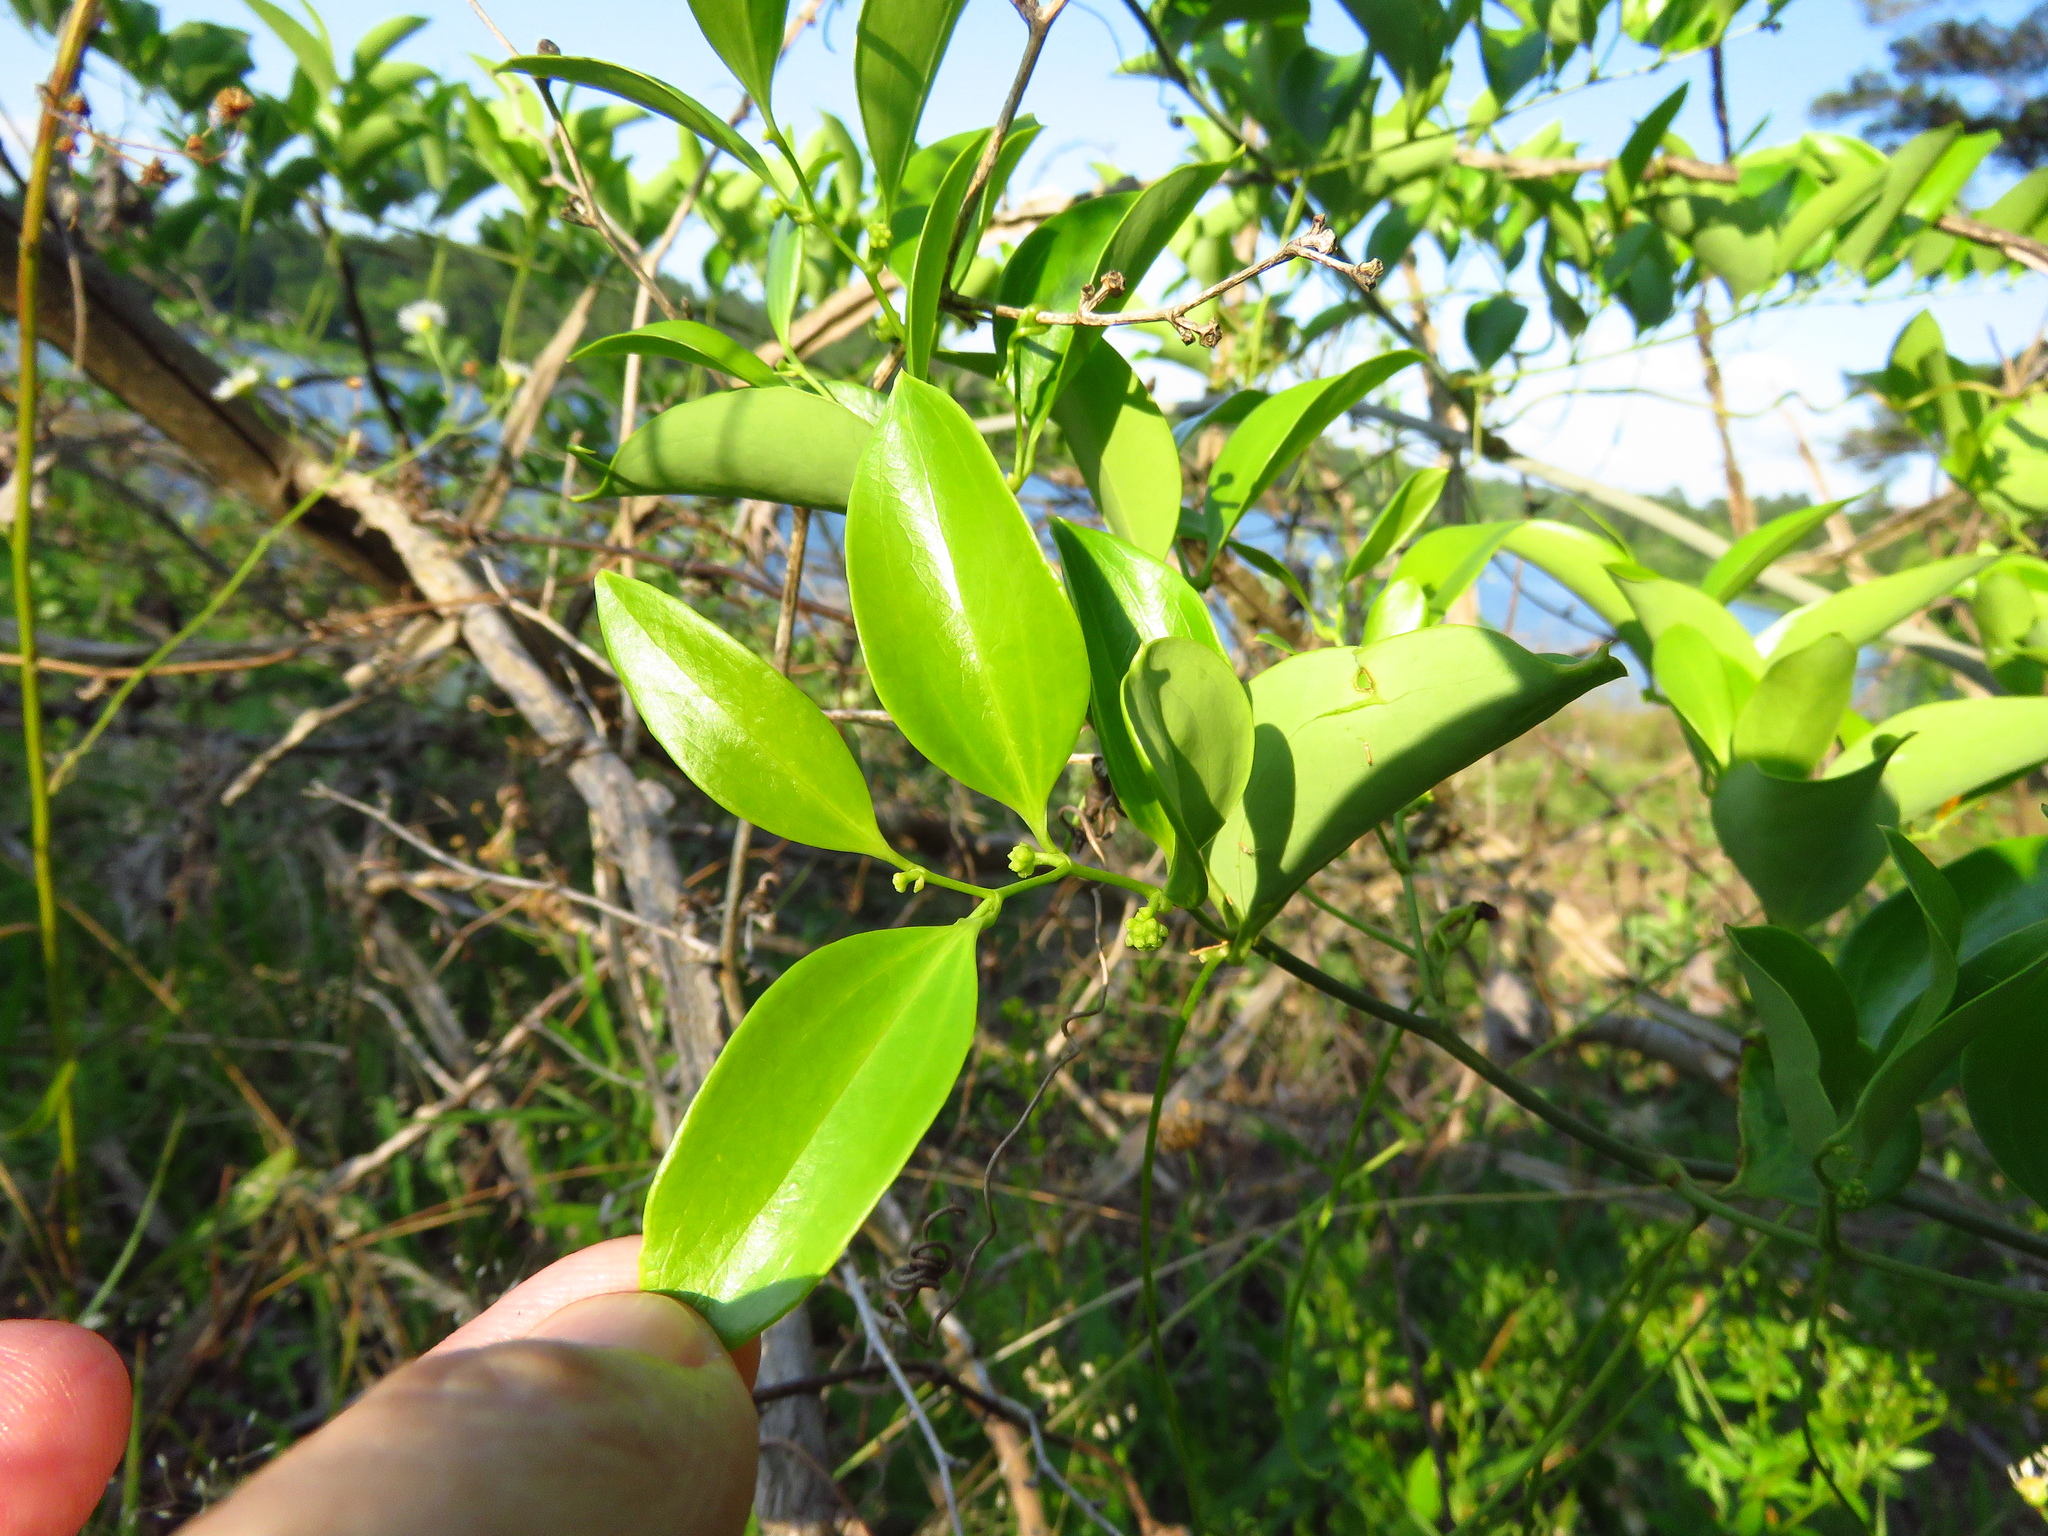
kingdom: Plantae
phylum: Tracheophyta
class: Liliopsida
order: Liliales
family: Smilacaceae
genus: Smilax
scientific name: Smilax maritima
